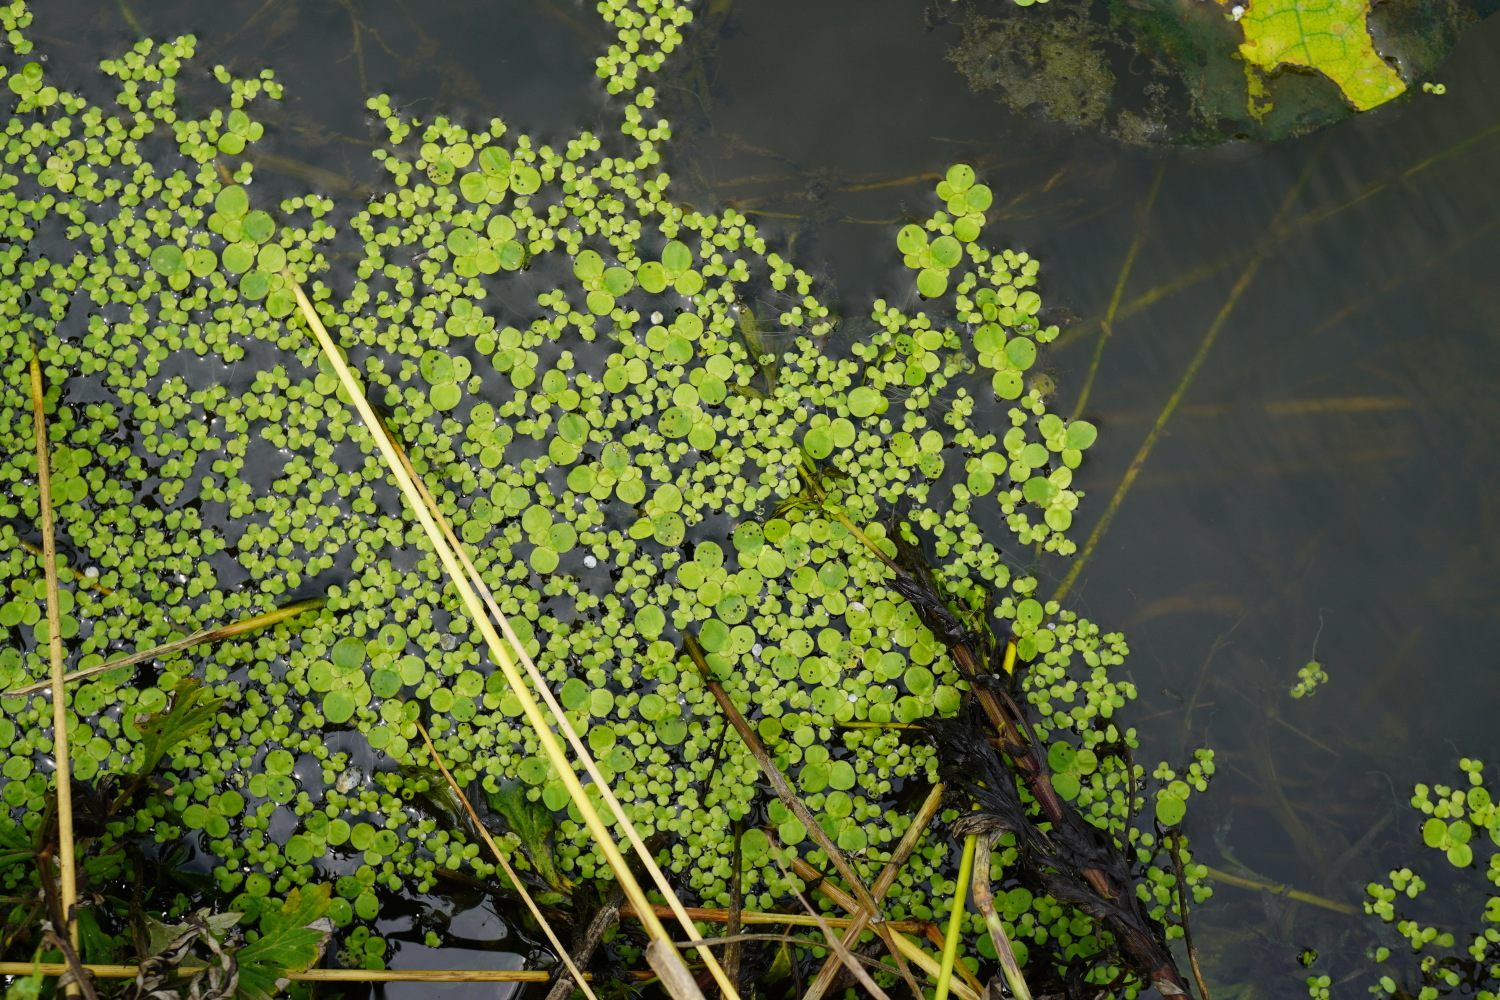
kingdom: Plantae
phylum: Tracheophyta
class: Liliopsida
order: Alismatales
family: Araceae
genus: Spirodela
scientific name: Spirodela polyrhiza
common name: Great duckweed
